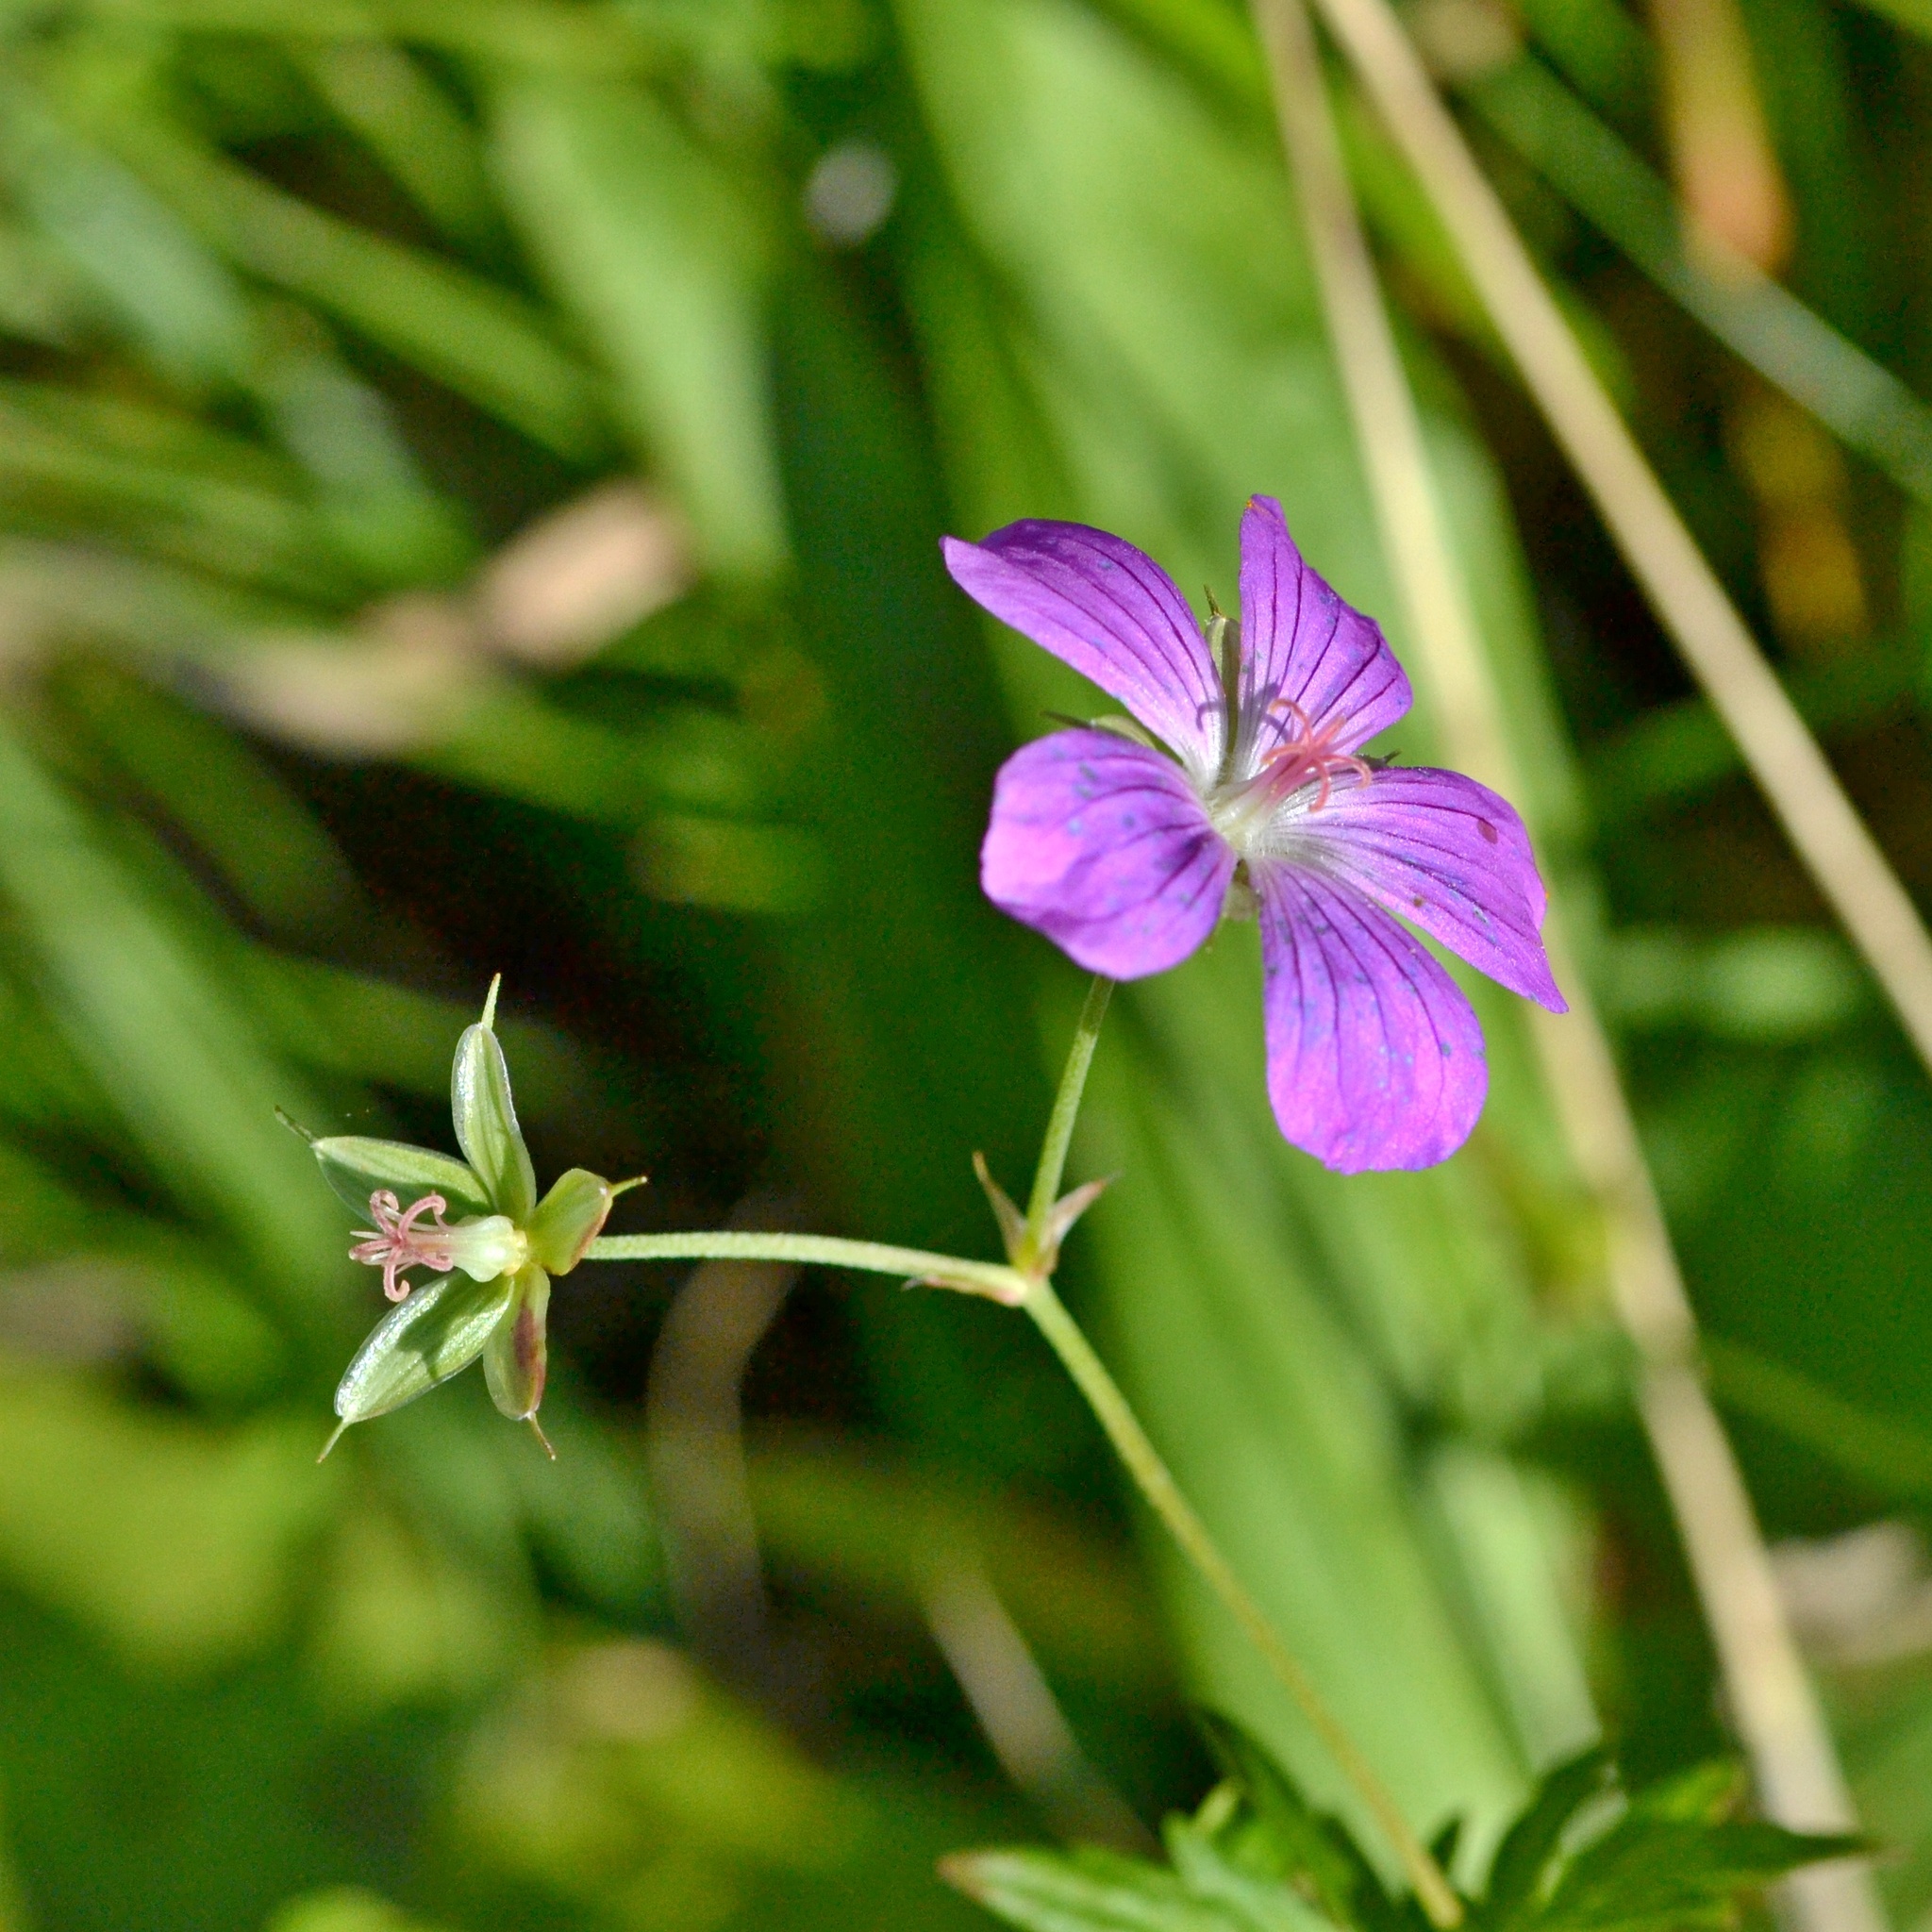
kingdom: Plantae
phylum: Tracheophyta
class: Magnoliopsida
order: Geraniales
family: Geraniaceae
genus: Geranium
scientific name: Geranium palustre
